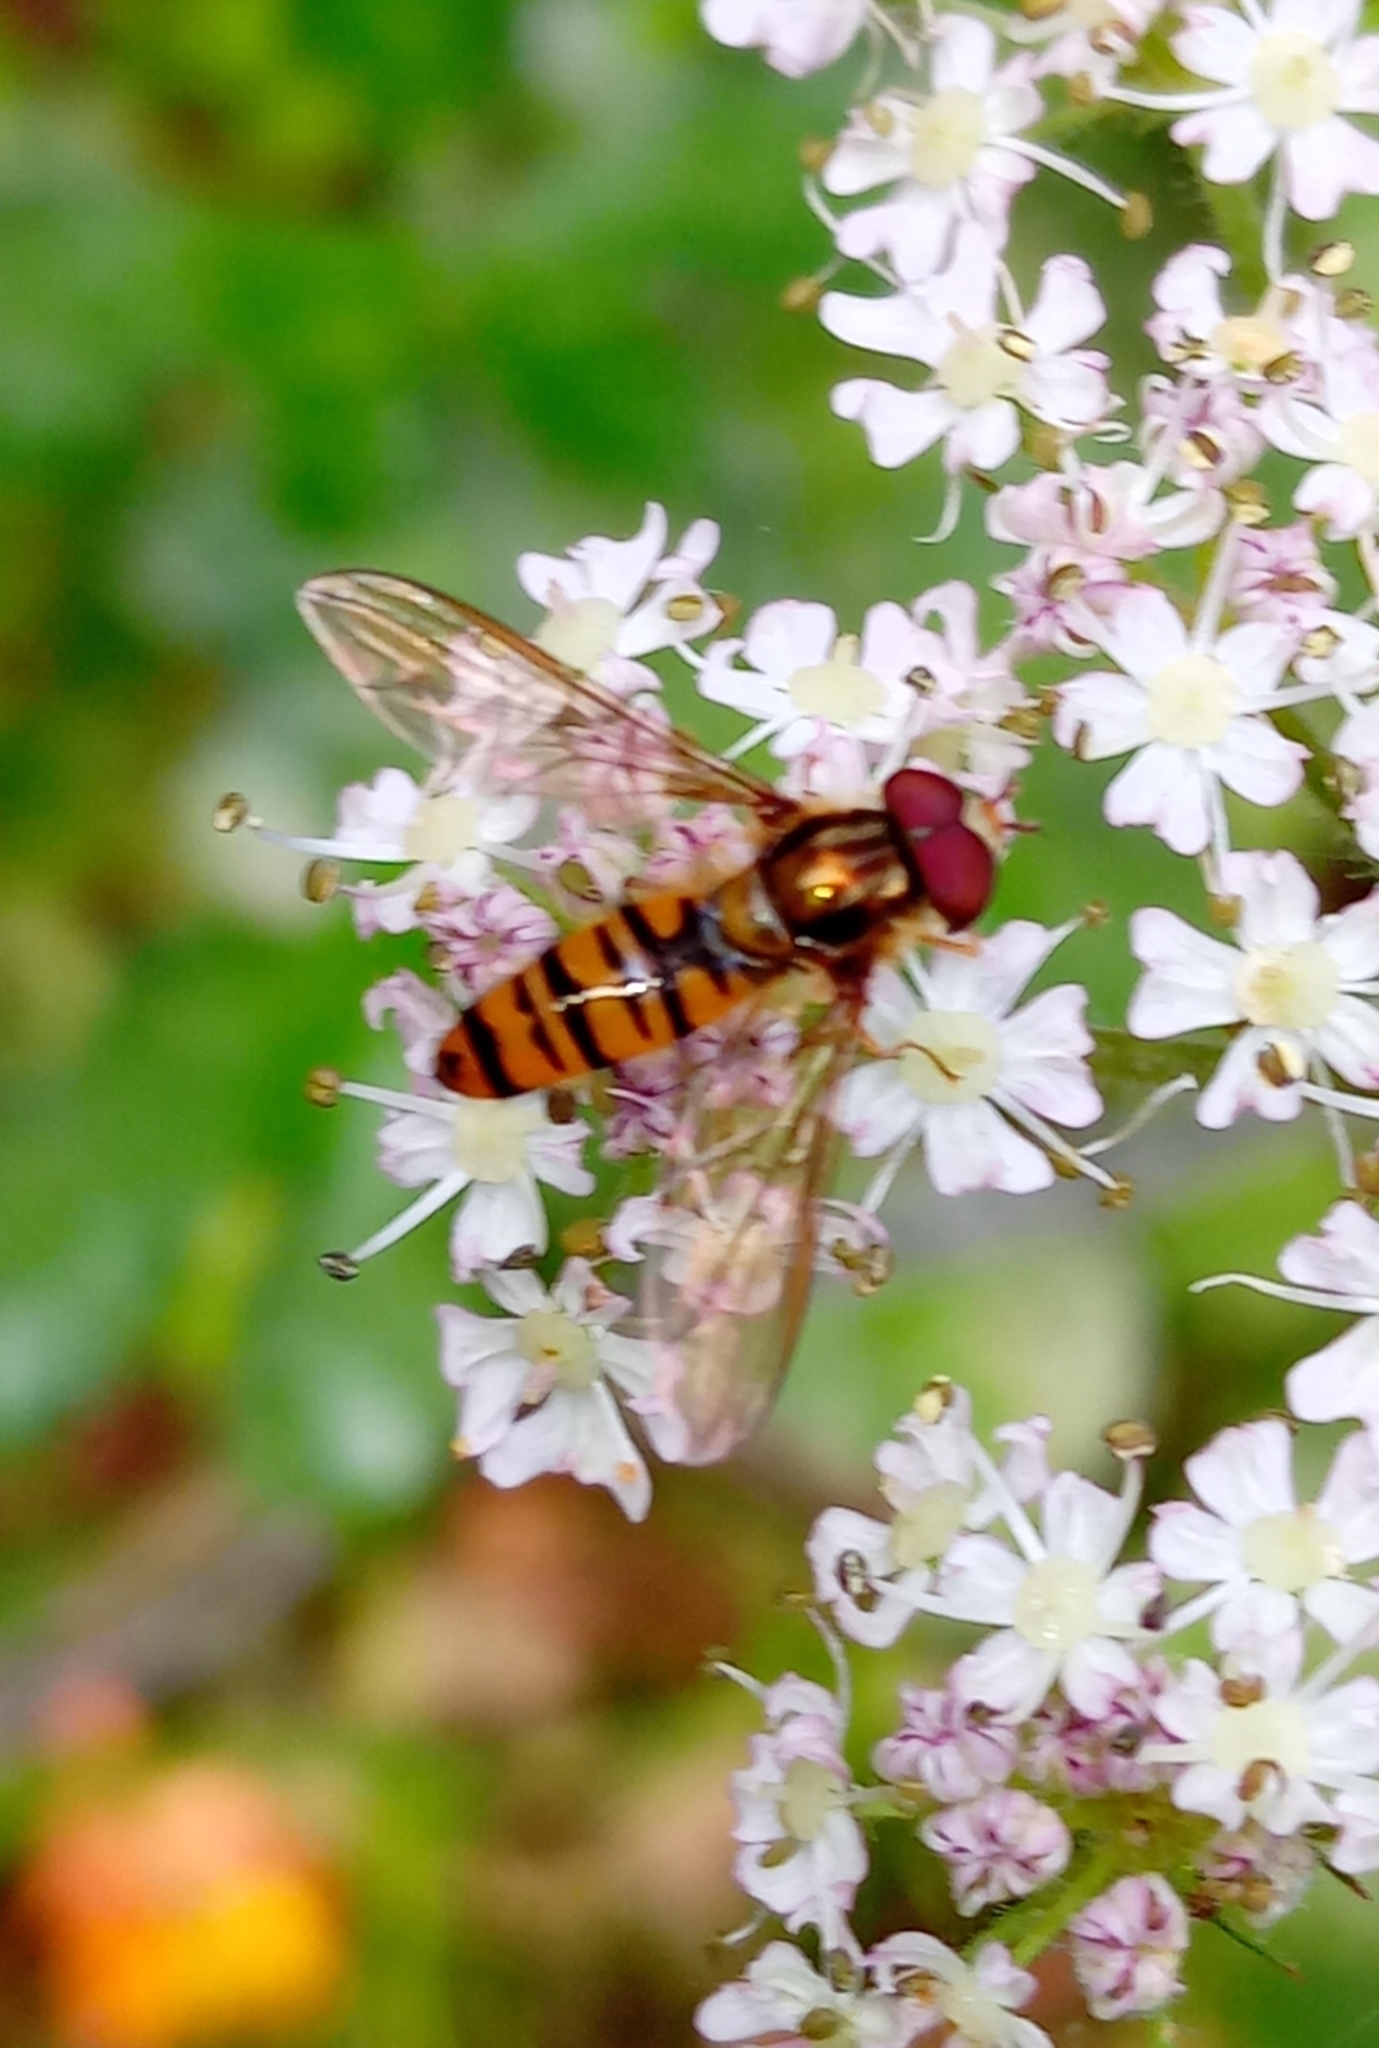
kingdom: Animalia
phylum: Arthropoda
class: Insecta
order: Diptera
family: Syrphidae
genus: Episyrphus
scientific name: Episyrphus balteatus
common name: Marmalade hoverfly
